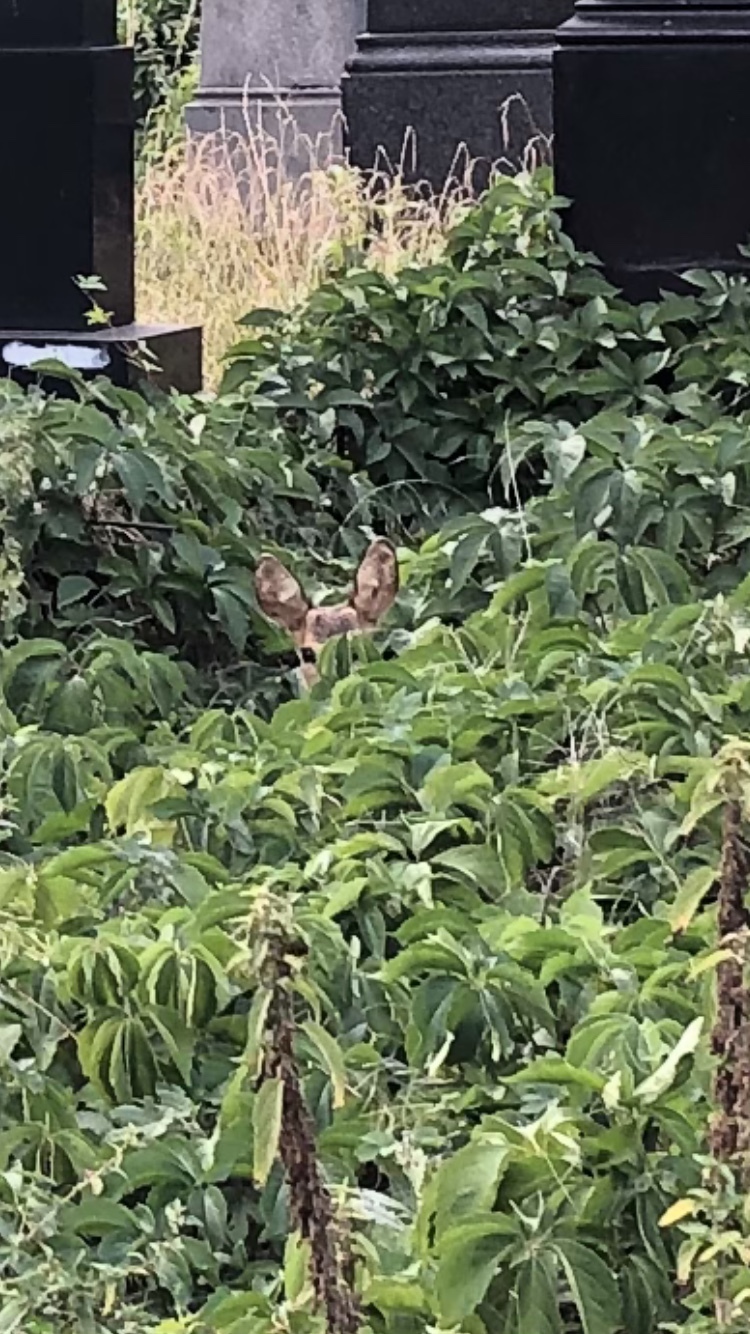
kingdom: Animalia
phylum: Chordata
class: Mammalia
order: Artiodactyla
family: Cervidae
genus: Capreolus
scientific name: Capreolus capreolus
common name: Western roe deer
